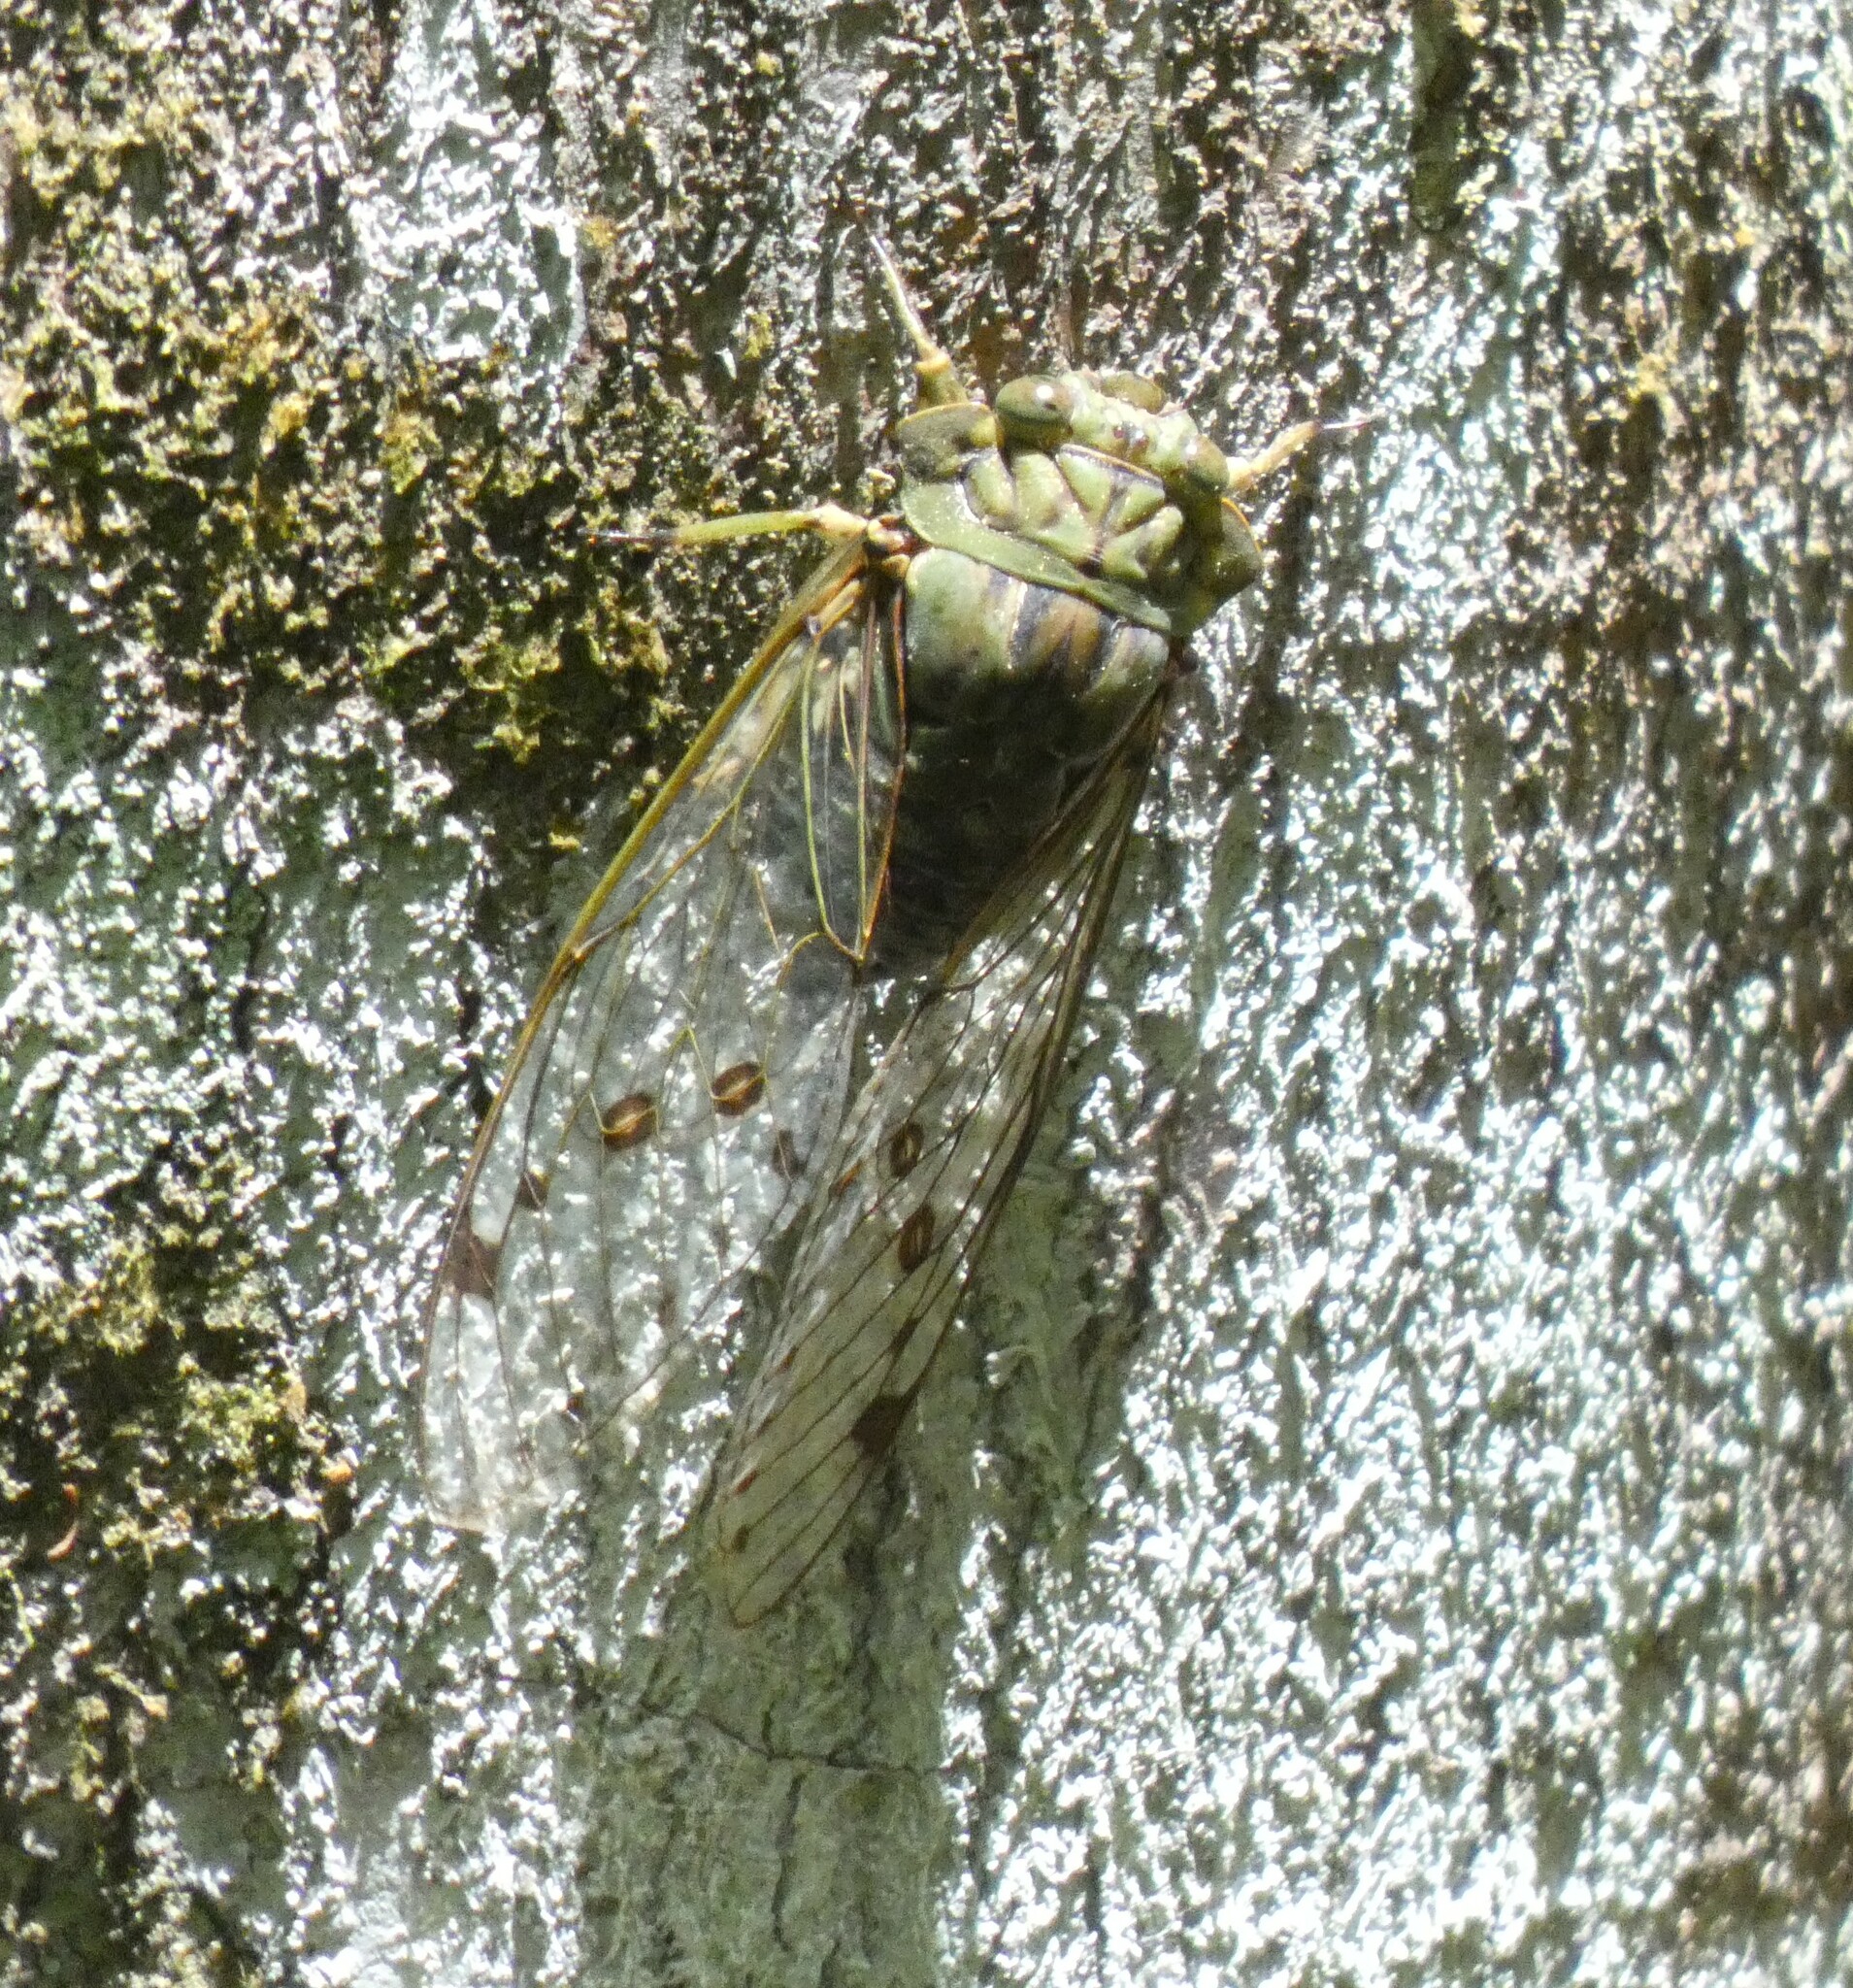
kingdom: Animalia
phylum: Arthropoda
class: Insecta
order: Hemiptera
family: Cicadidae
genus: Zammara
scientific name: Zammara tympanum
